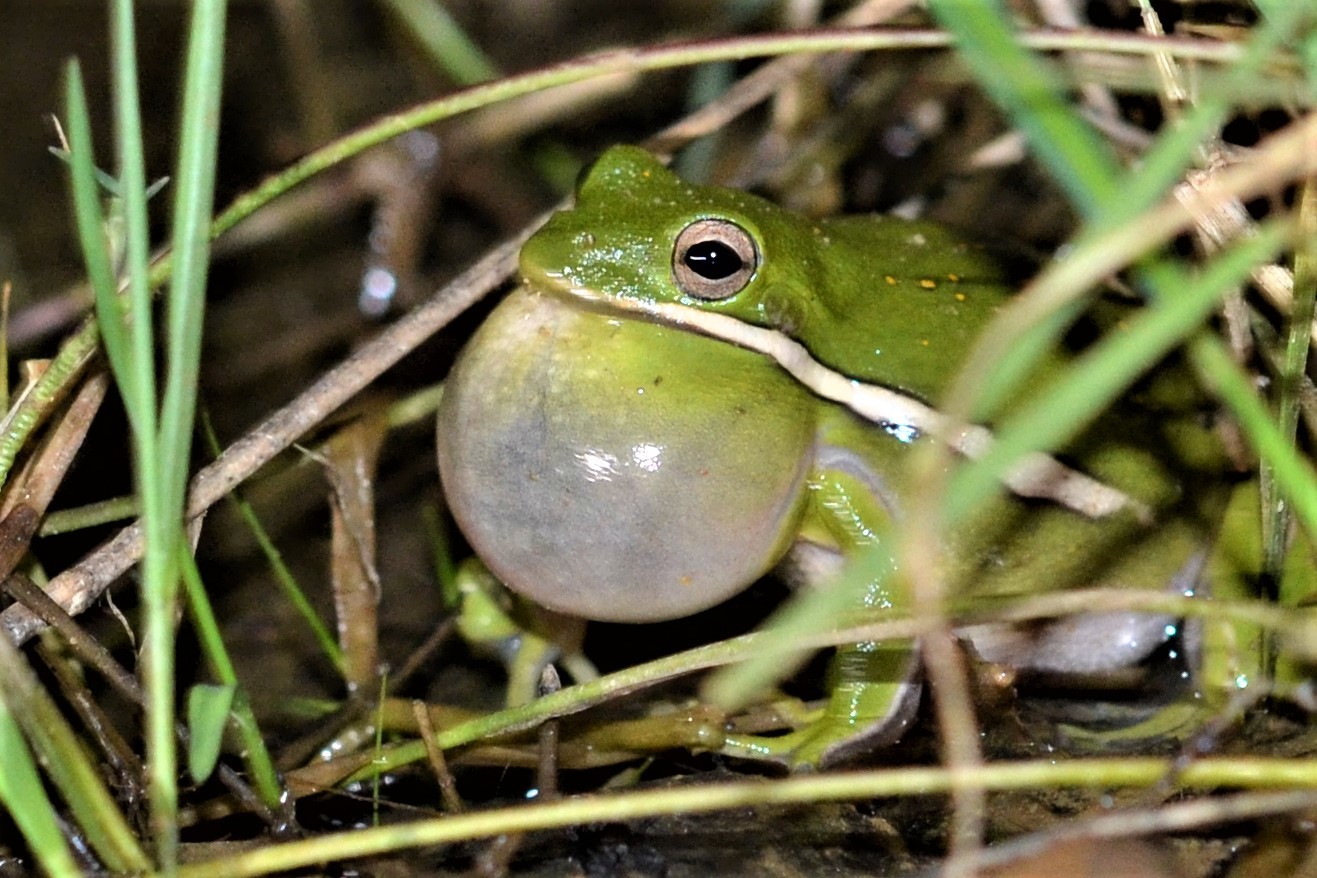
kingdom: Animalia
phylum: Chordata
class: Amphibia
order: Anura
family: Hylidae
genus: Dryophytes
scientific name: Dryophytes cinereus
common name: Green treefrog
